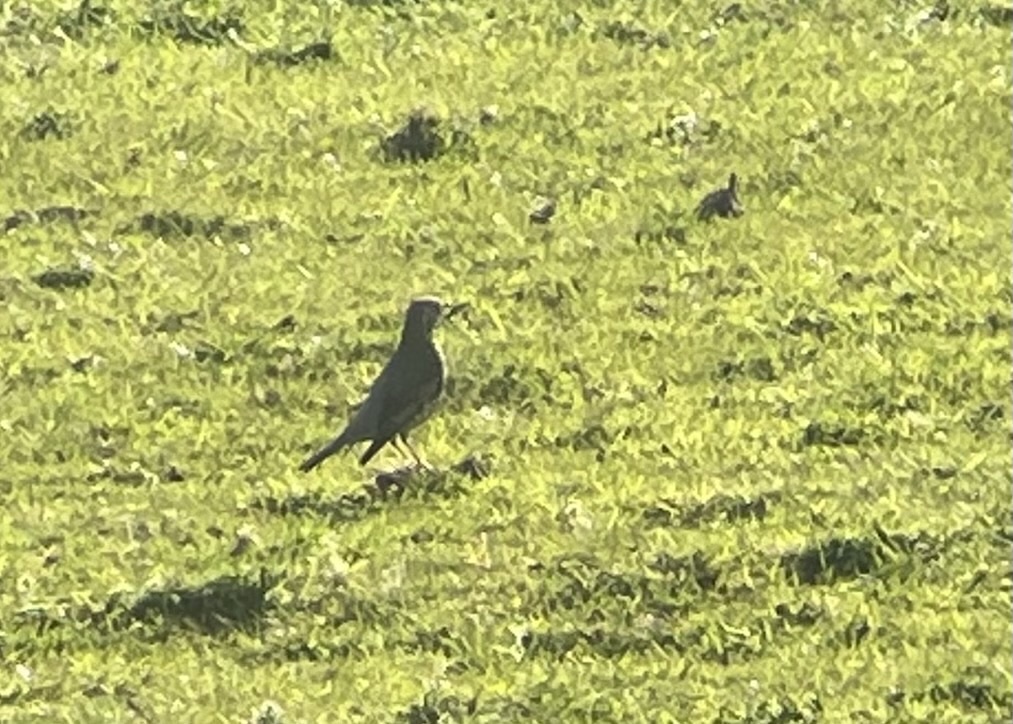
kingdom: Animalia
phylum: Chordata
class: Aves
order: Passeriformes
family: Turdidae
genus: Turdus
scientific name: Turdus viscivorus
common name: Mistle thrush
